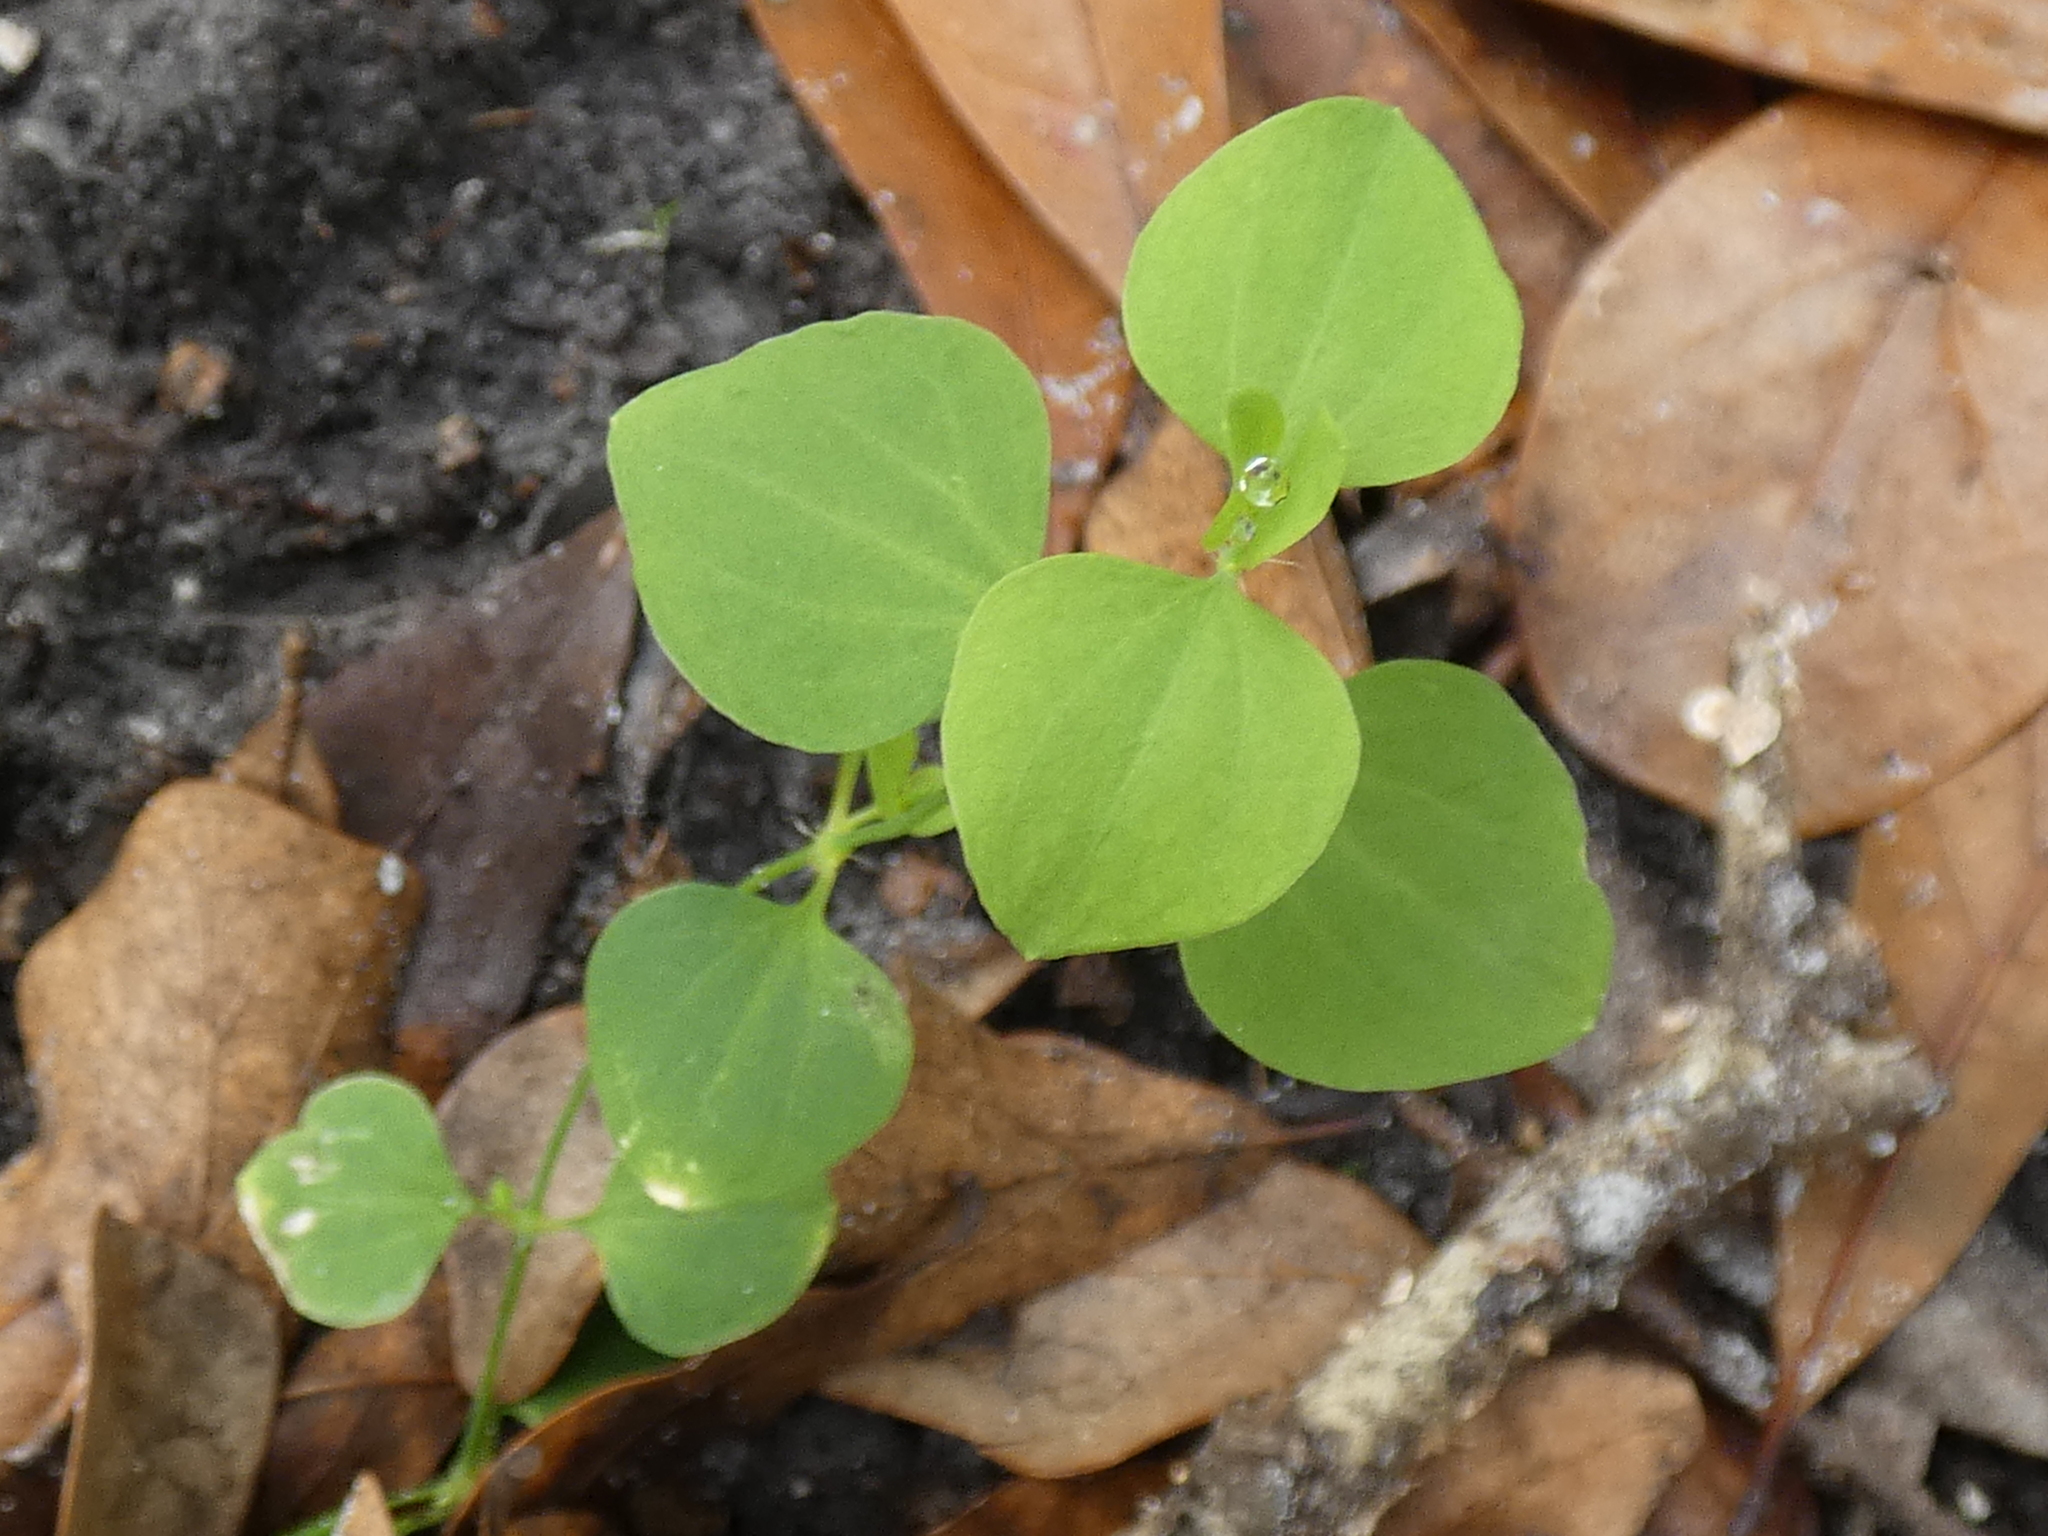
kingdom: Plantae
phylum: Tracheophyta
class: Magnoliopsida
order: Caryophyllales
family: Caryophyllaceae
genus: Drymaria
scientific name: Drymaria cordata
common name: Whitesnow
